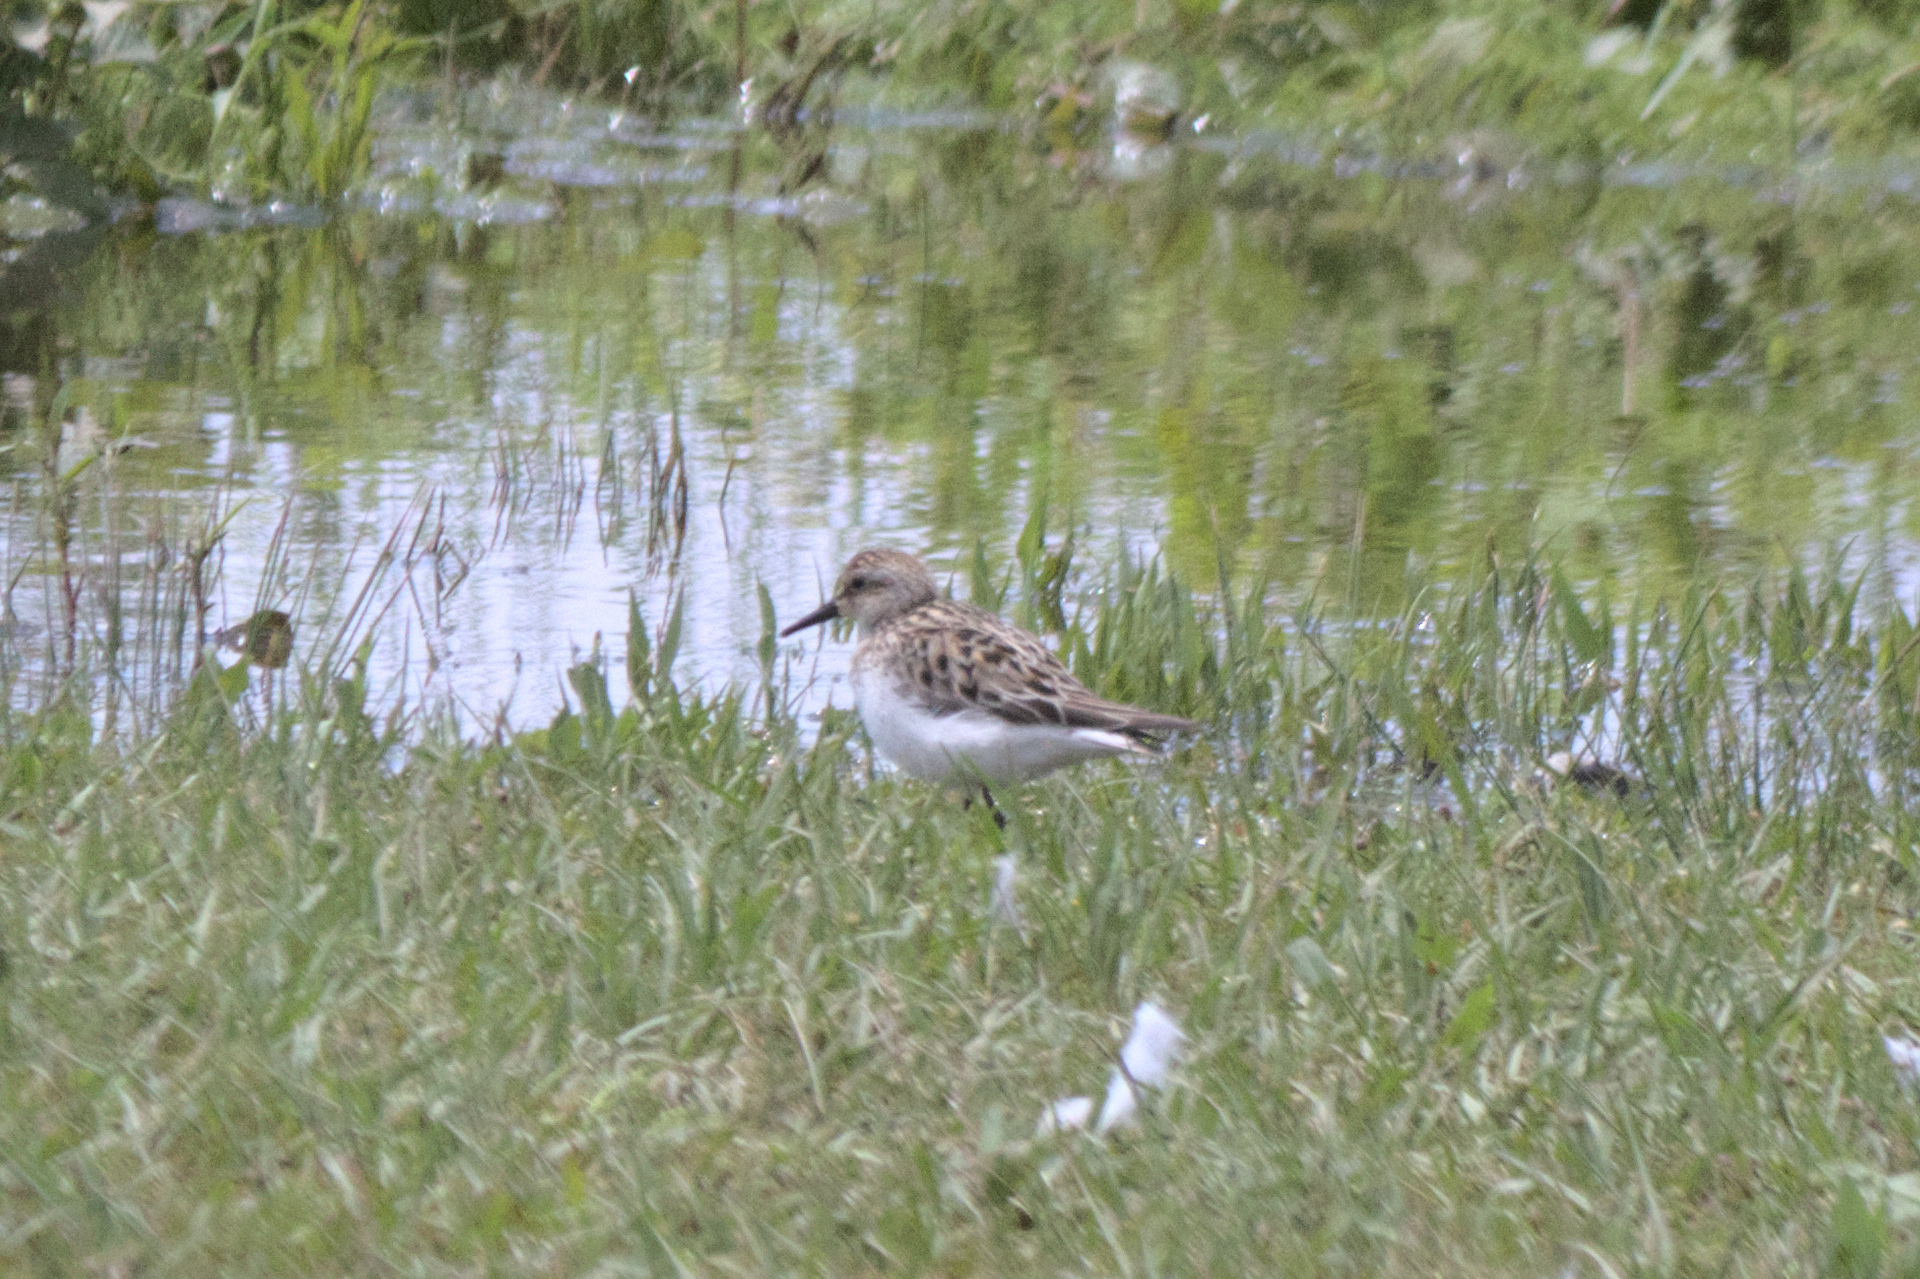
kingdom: Animalia
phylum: Chordata
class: Aves
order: Charadriiformes
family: Scolopacidae
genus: Calidris
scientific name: Calidris pusilla
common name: Semipalmated sandpiper
